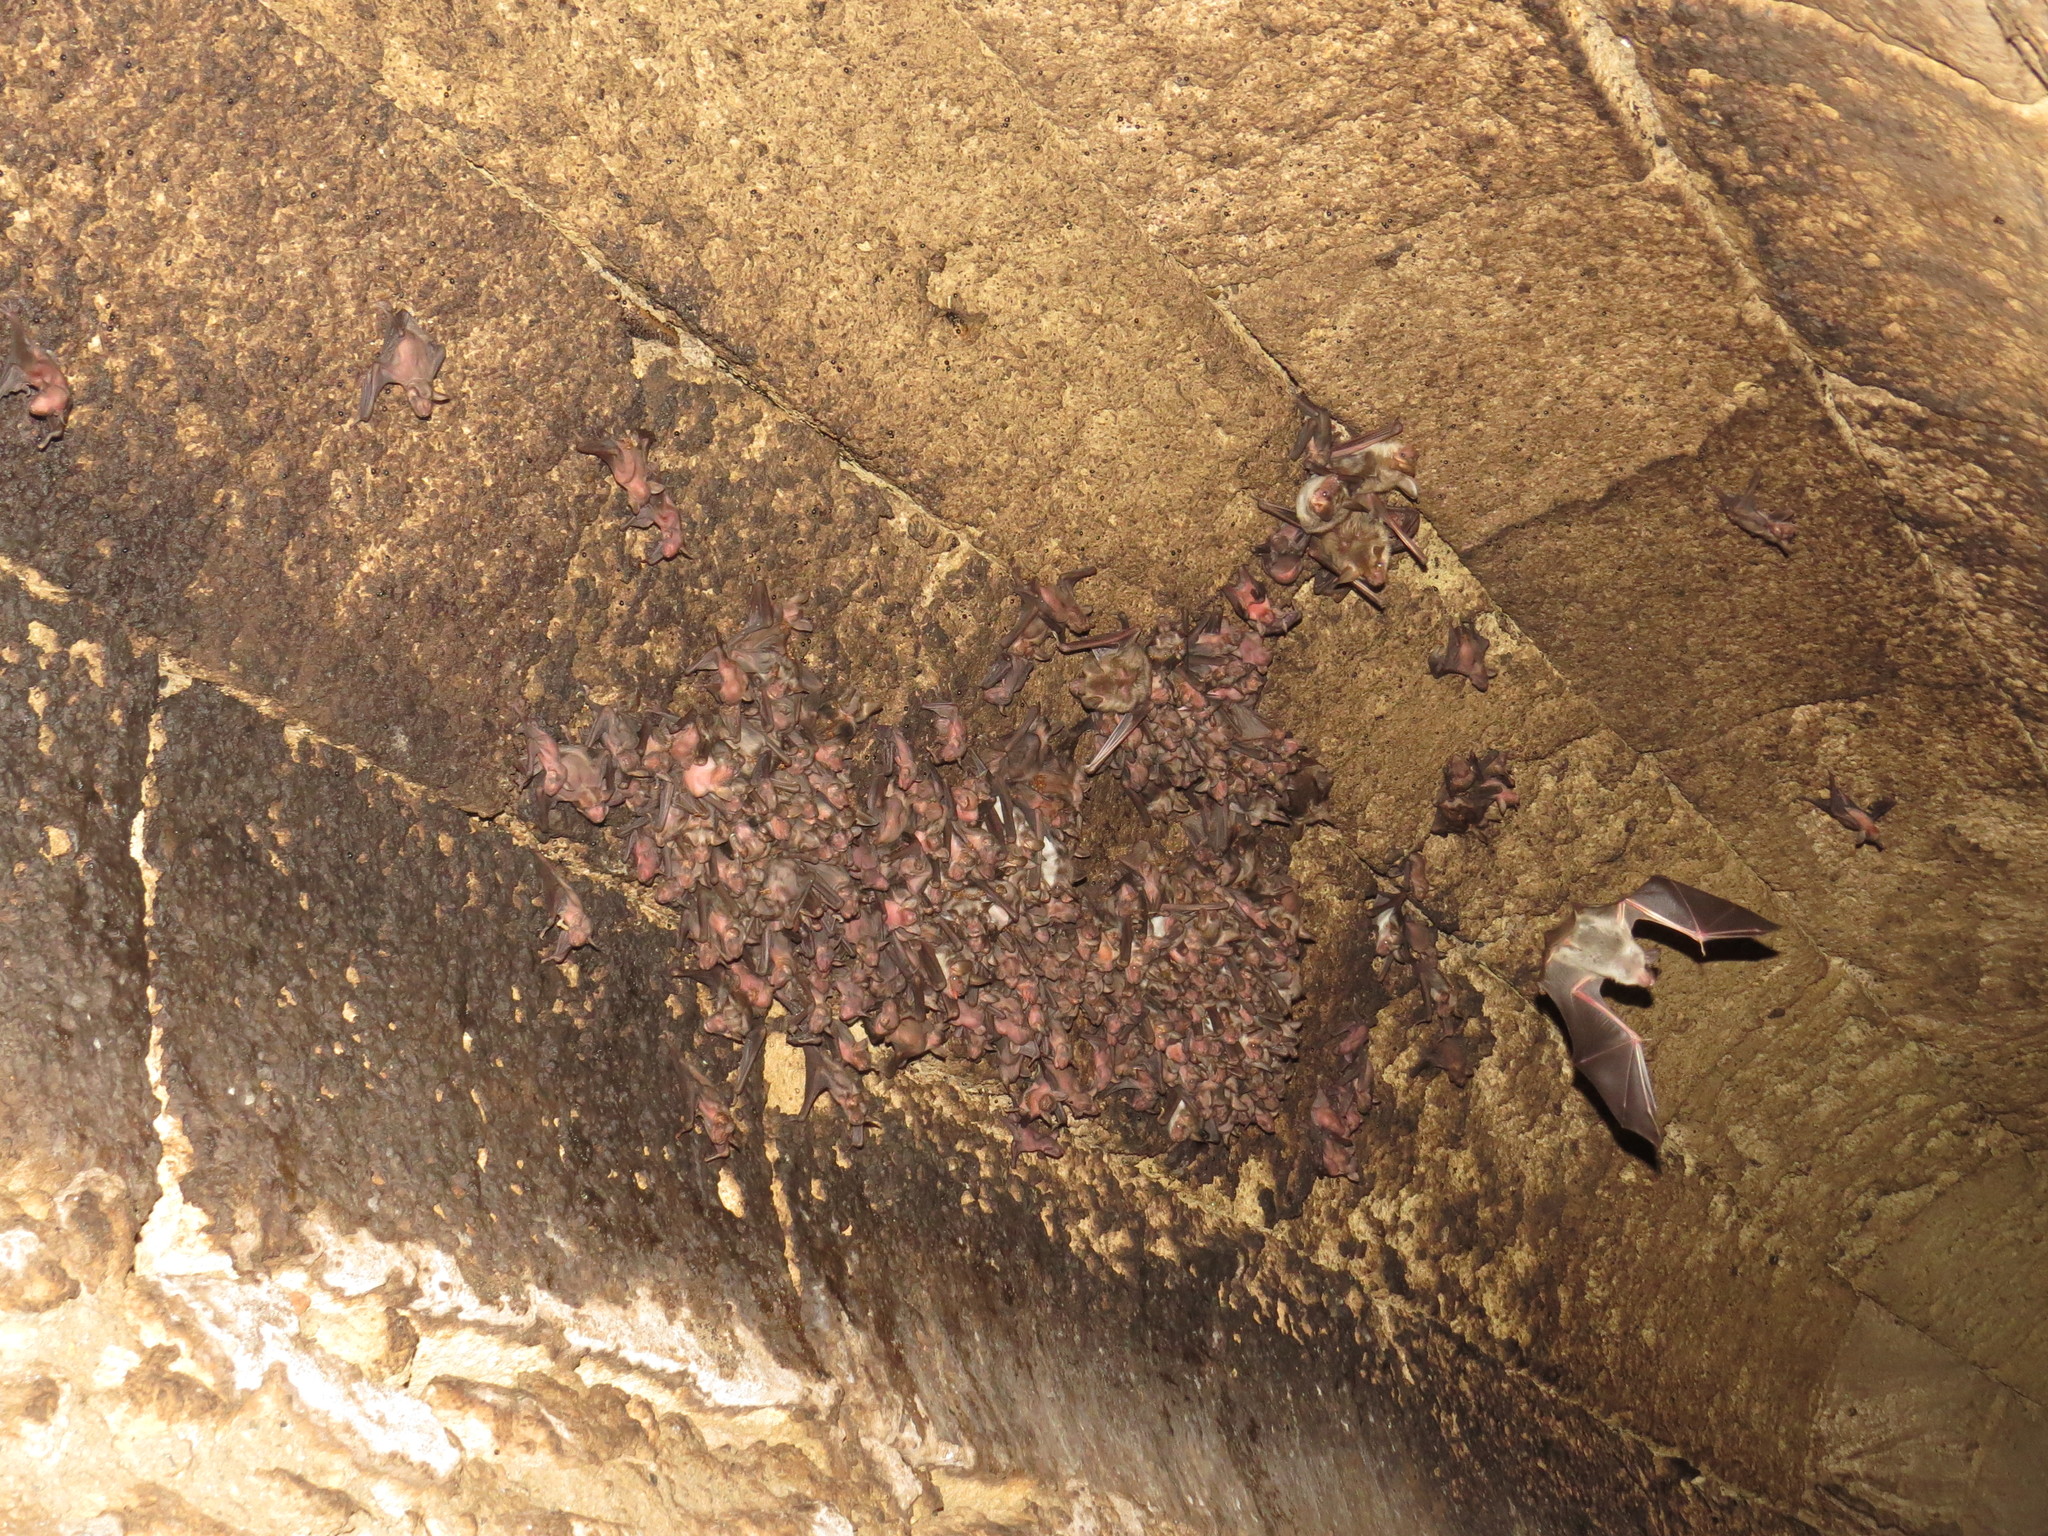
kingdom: Animalia
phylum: Chordata
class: Mammalia
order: Chiroptera
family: Vespertilionidae
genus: Myotis
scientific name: Myotis blythii
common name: Lesser mouse-eared myotis
